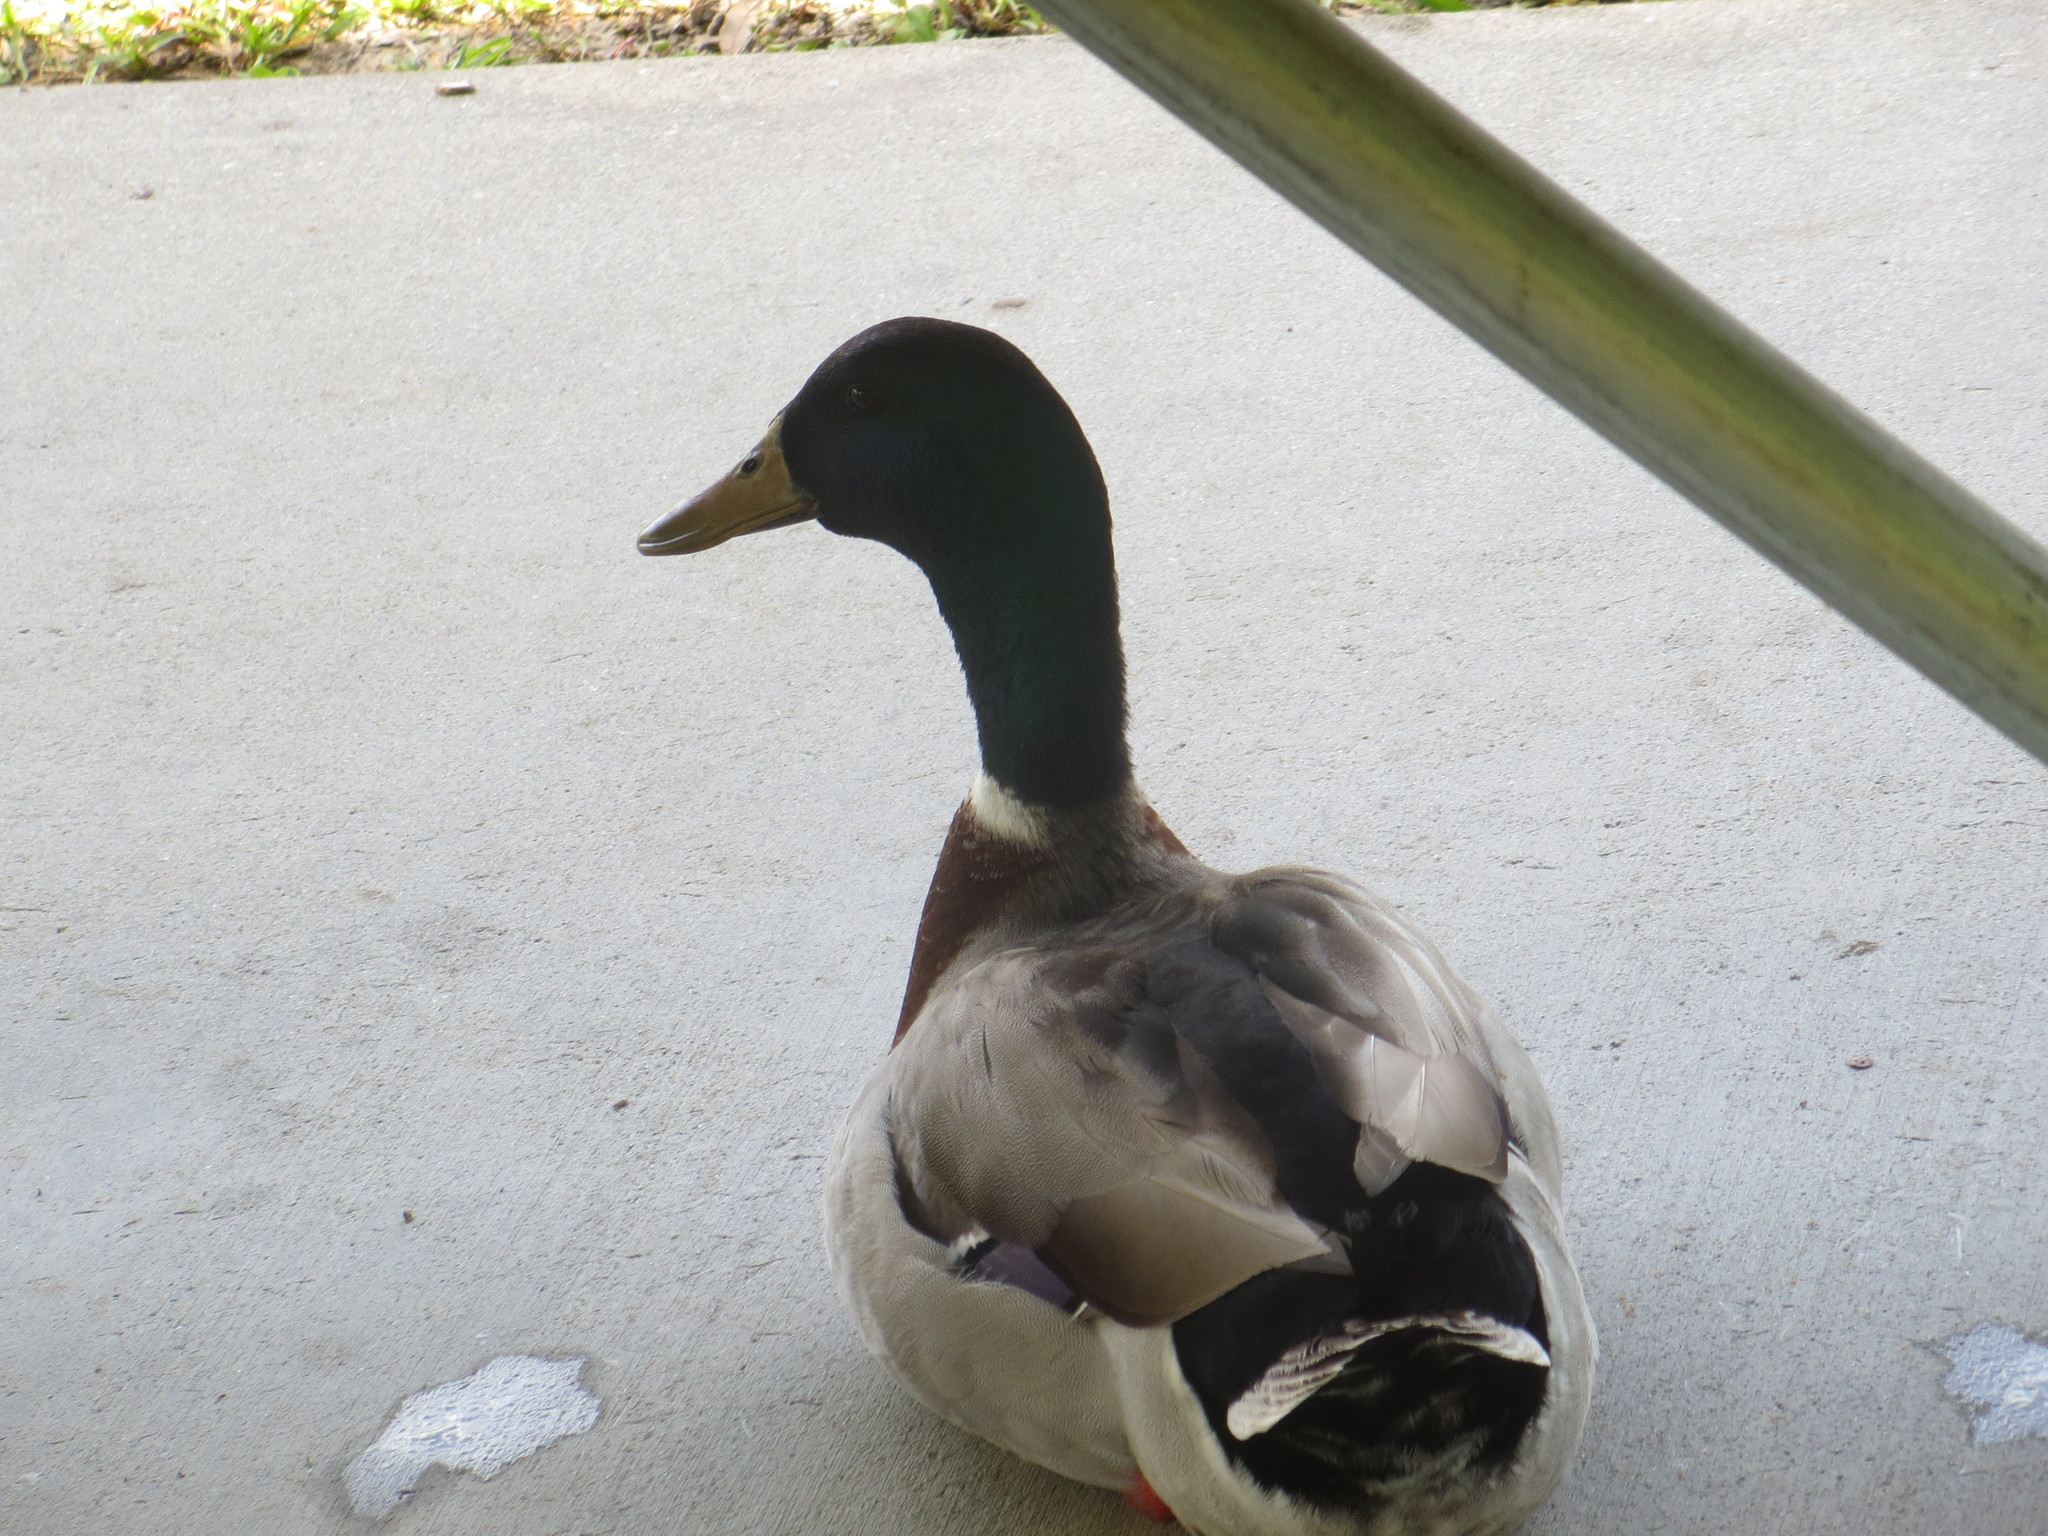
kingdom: Animalia
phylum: Chordata
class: Aves
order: Anseriformes
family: Anatidae
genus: Anas
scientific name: Anas platyrhynchos
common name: Mallard
